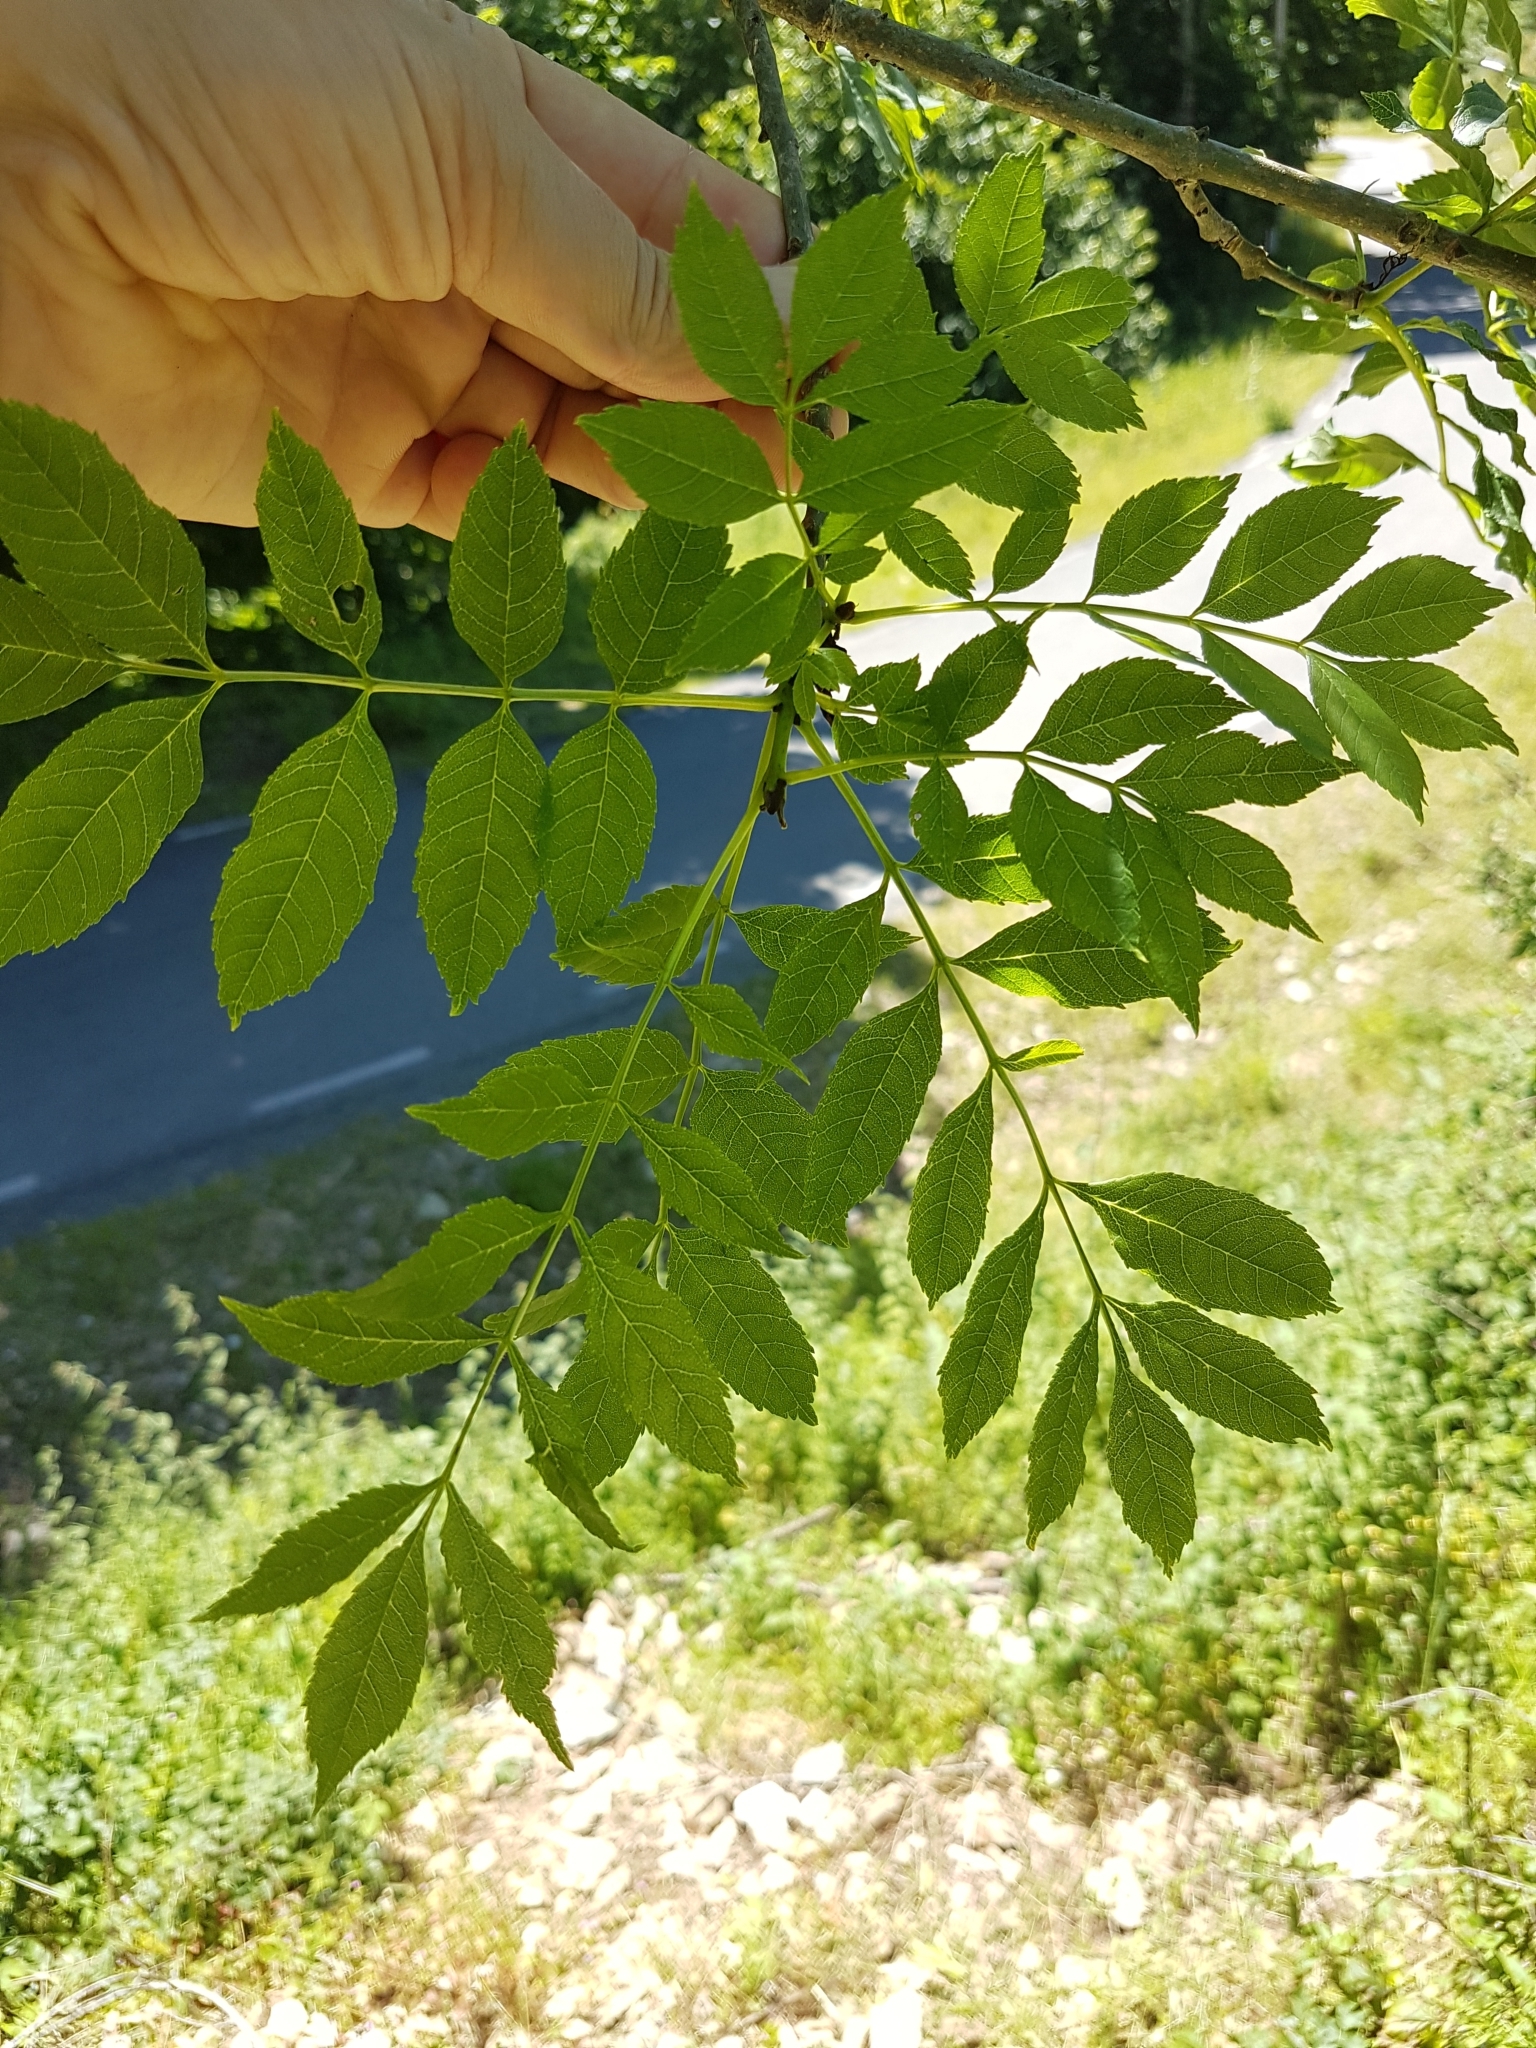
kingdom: Plantae
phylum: Tracheophyta
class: Magnoliopsida
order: Lamiales
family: Oleaceae
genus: Fraxinus
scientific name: Fraxinus excelsior
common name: European ash
